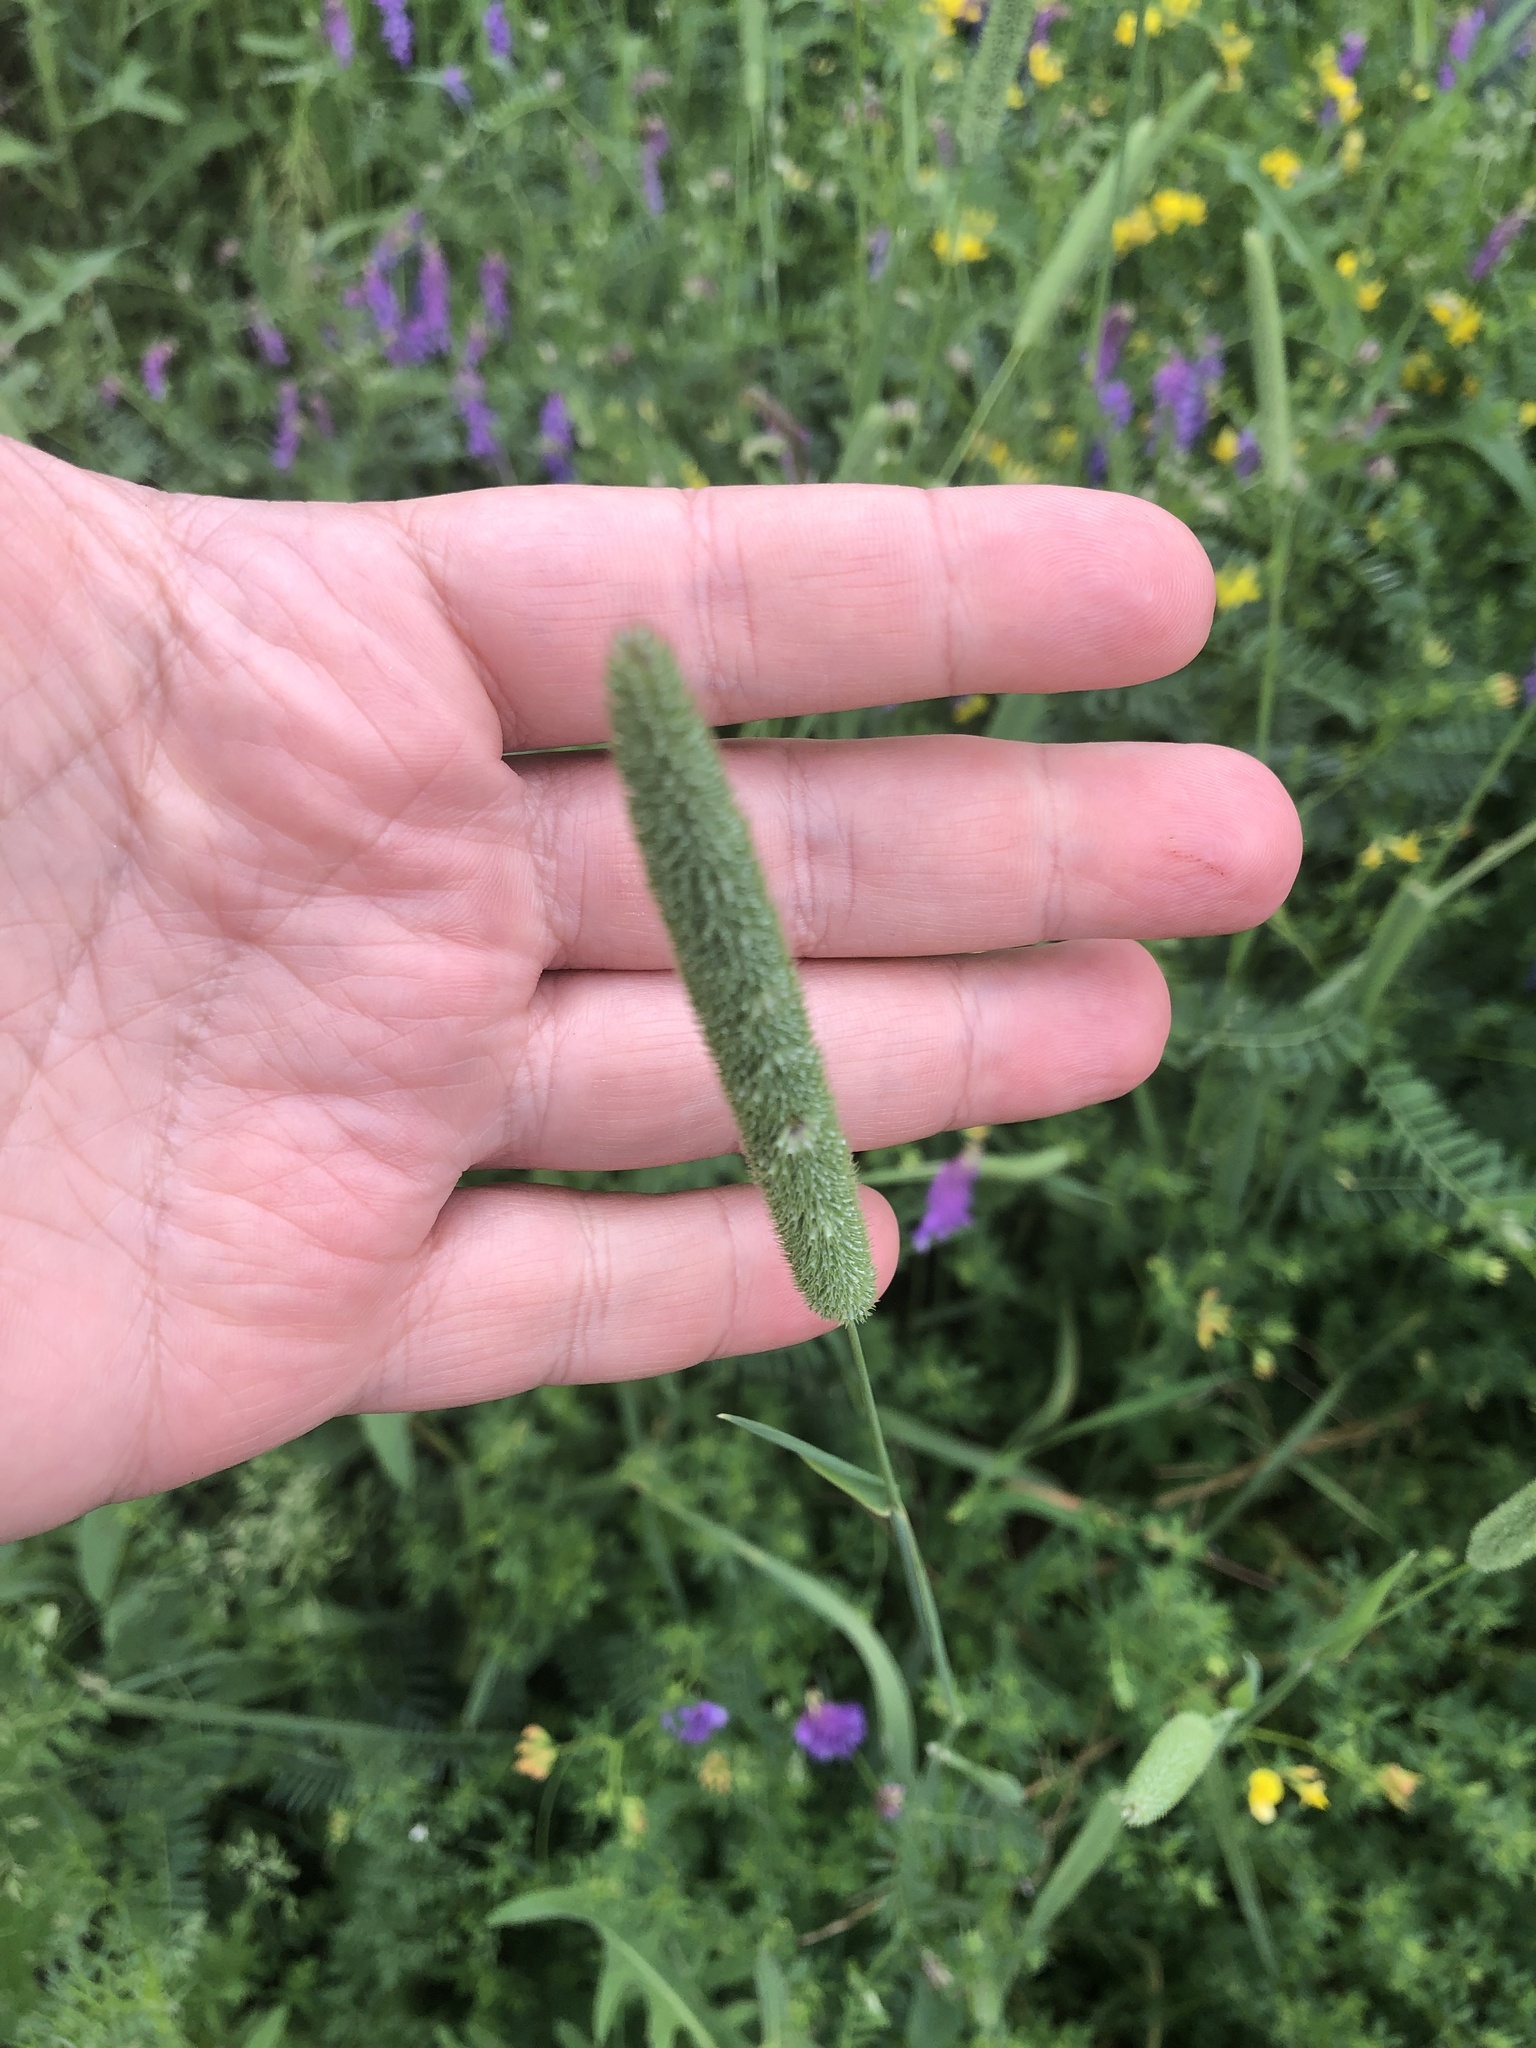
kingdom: Plantae
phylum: Tracheophyta
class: Liliopsida
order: Poales
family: Poaceae
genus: Phleum
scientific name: Phleum pratense
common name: Timothy grass
